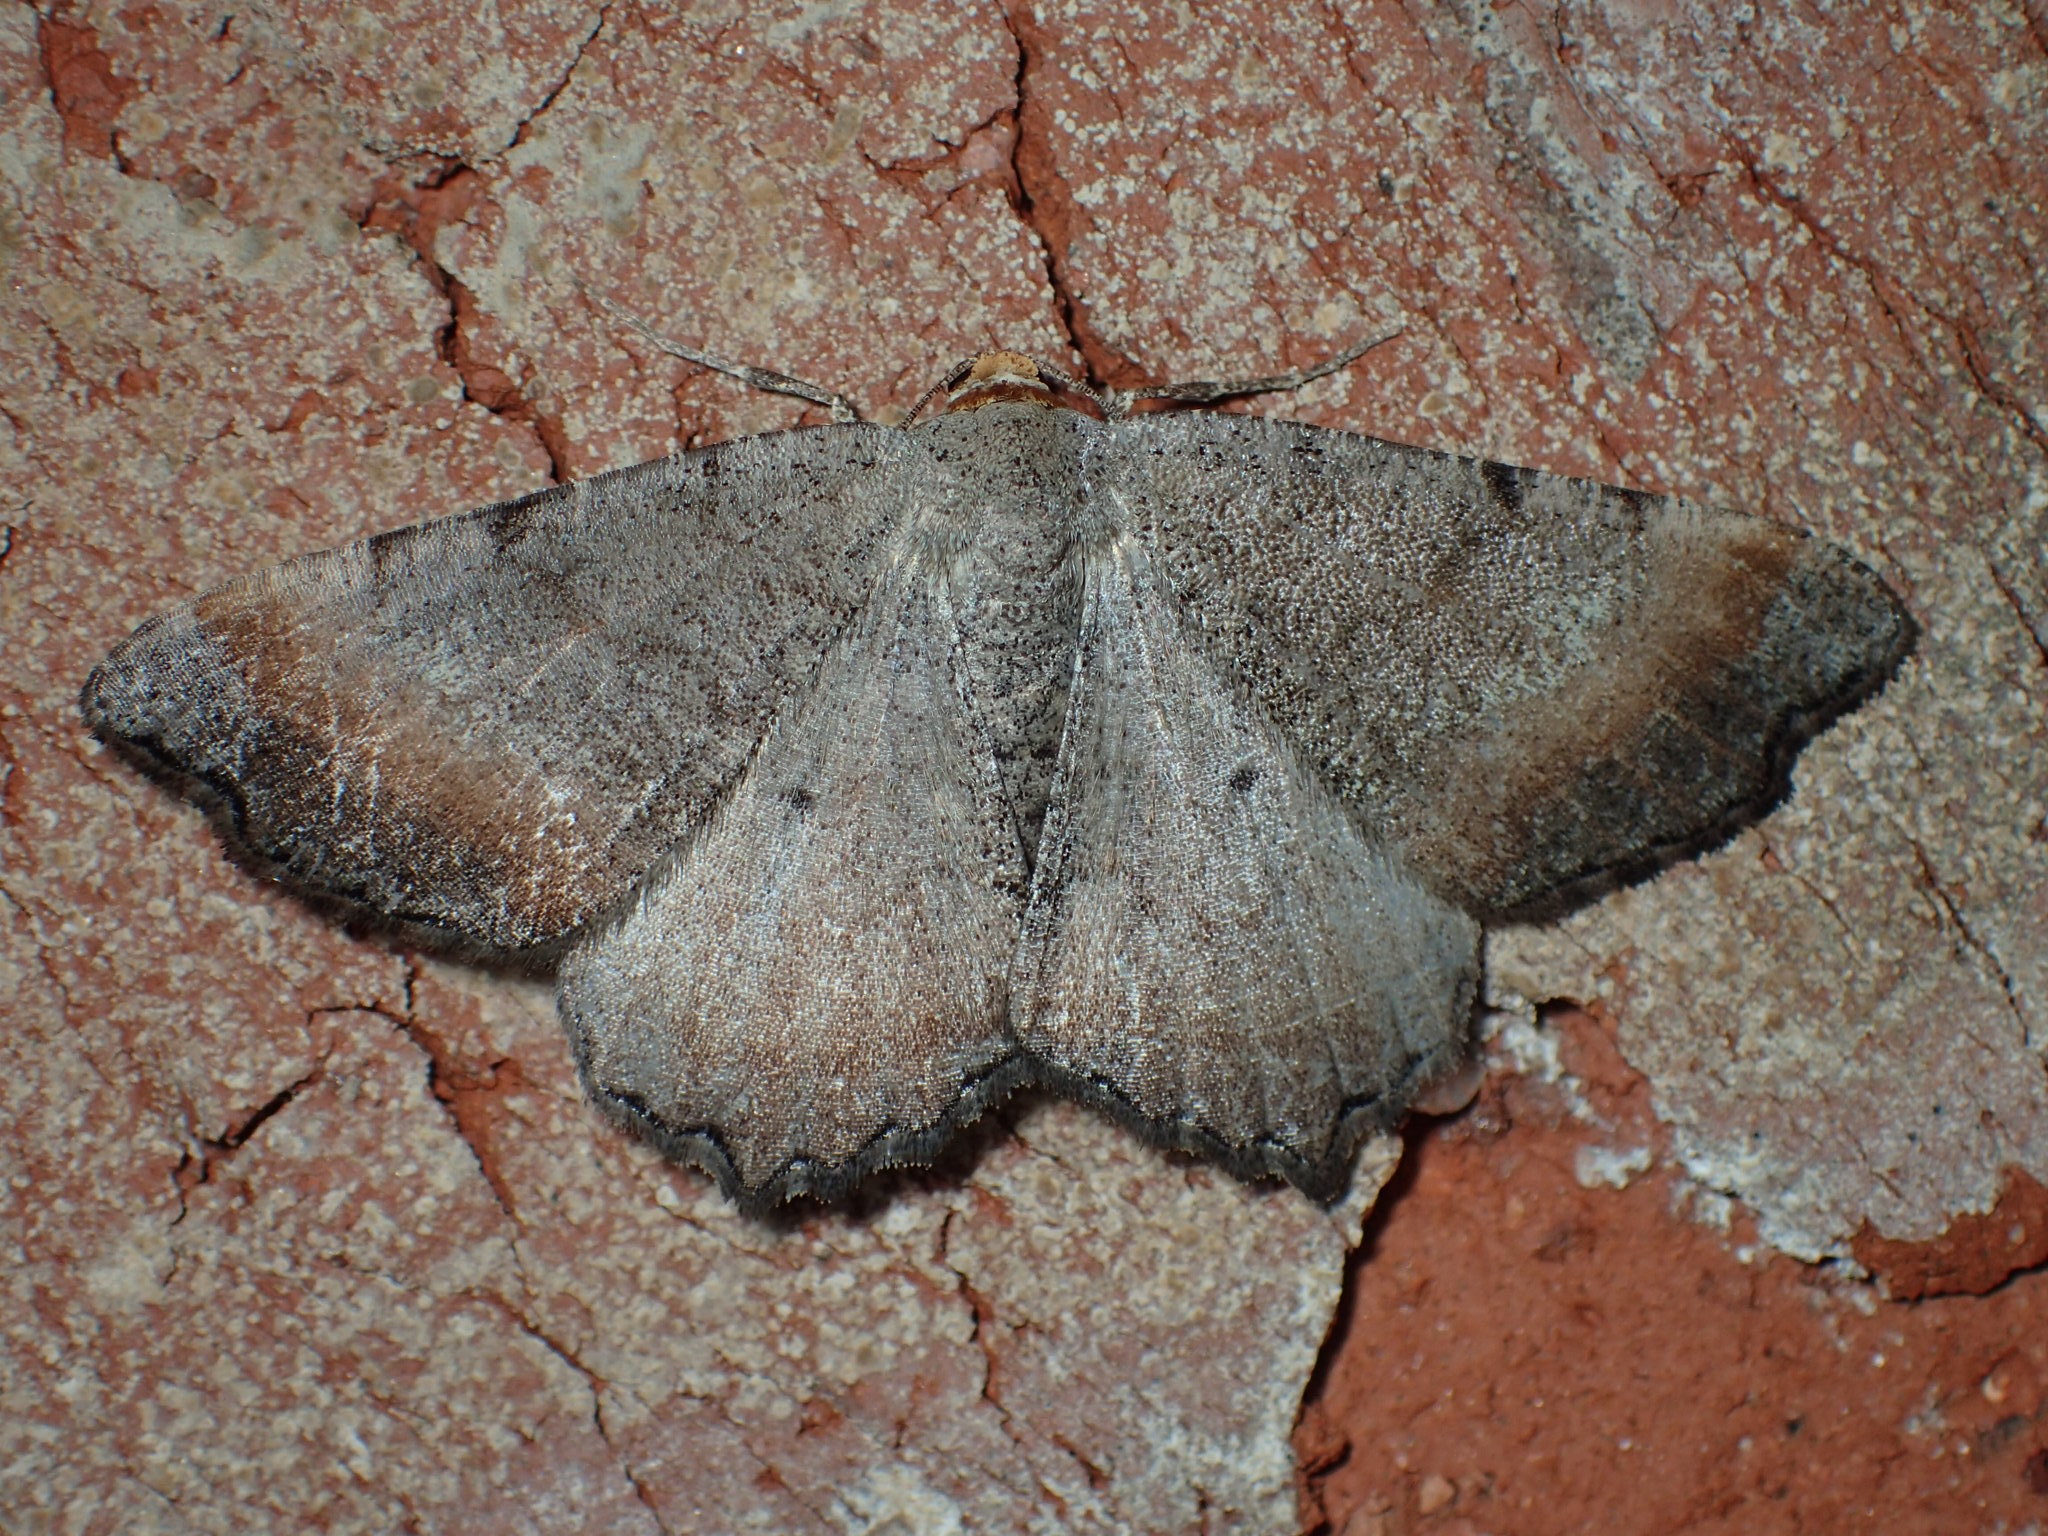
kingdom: Animalia
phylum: Arthropoda
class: Insecta
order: Lepidoptera
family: Geometridae
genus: Macaria
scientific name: Macaria transitaria
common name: Blurry chocolate angle
